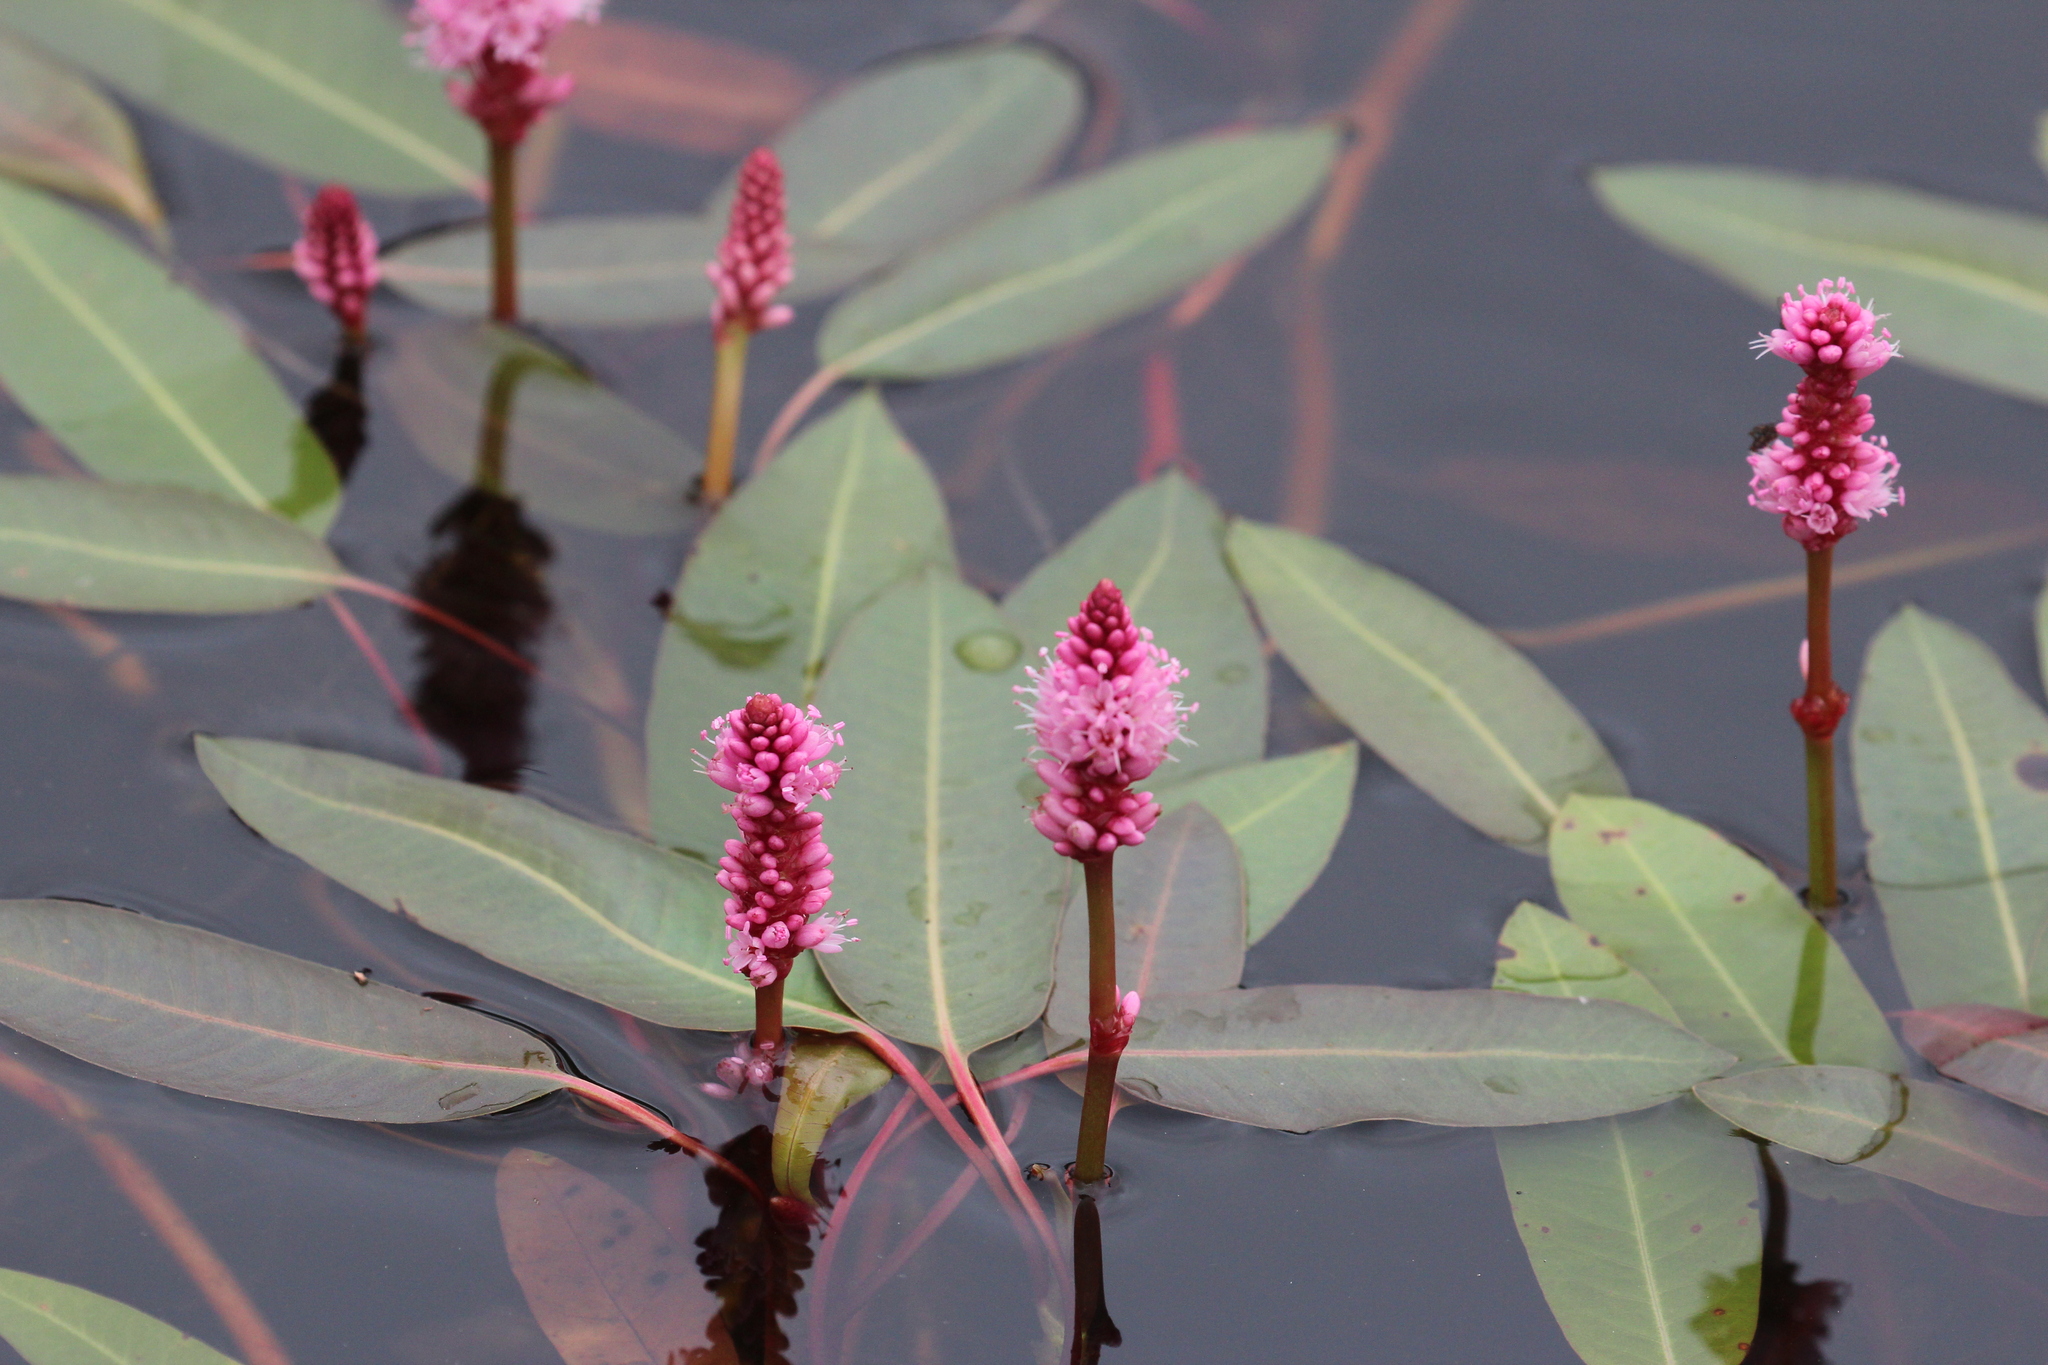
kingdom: Plantae
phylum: Tracheophyta
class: Magnoliopsida
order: Caryophyllales
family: Polygonaceae
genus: Persicaria
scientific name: Persicaria amphibia
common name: Amphibious bistort
